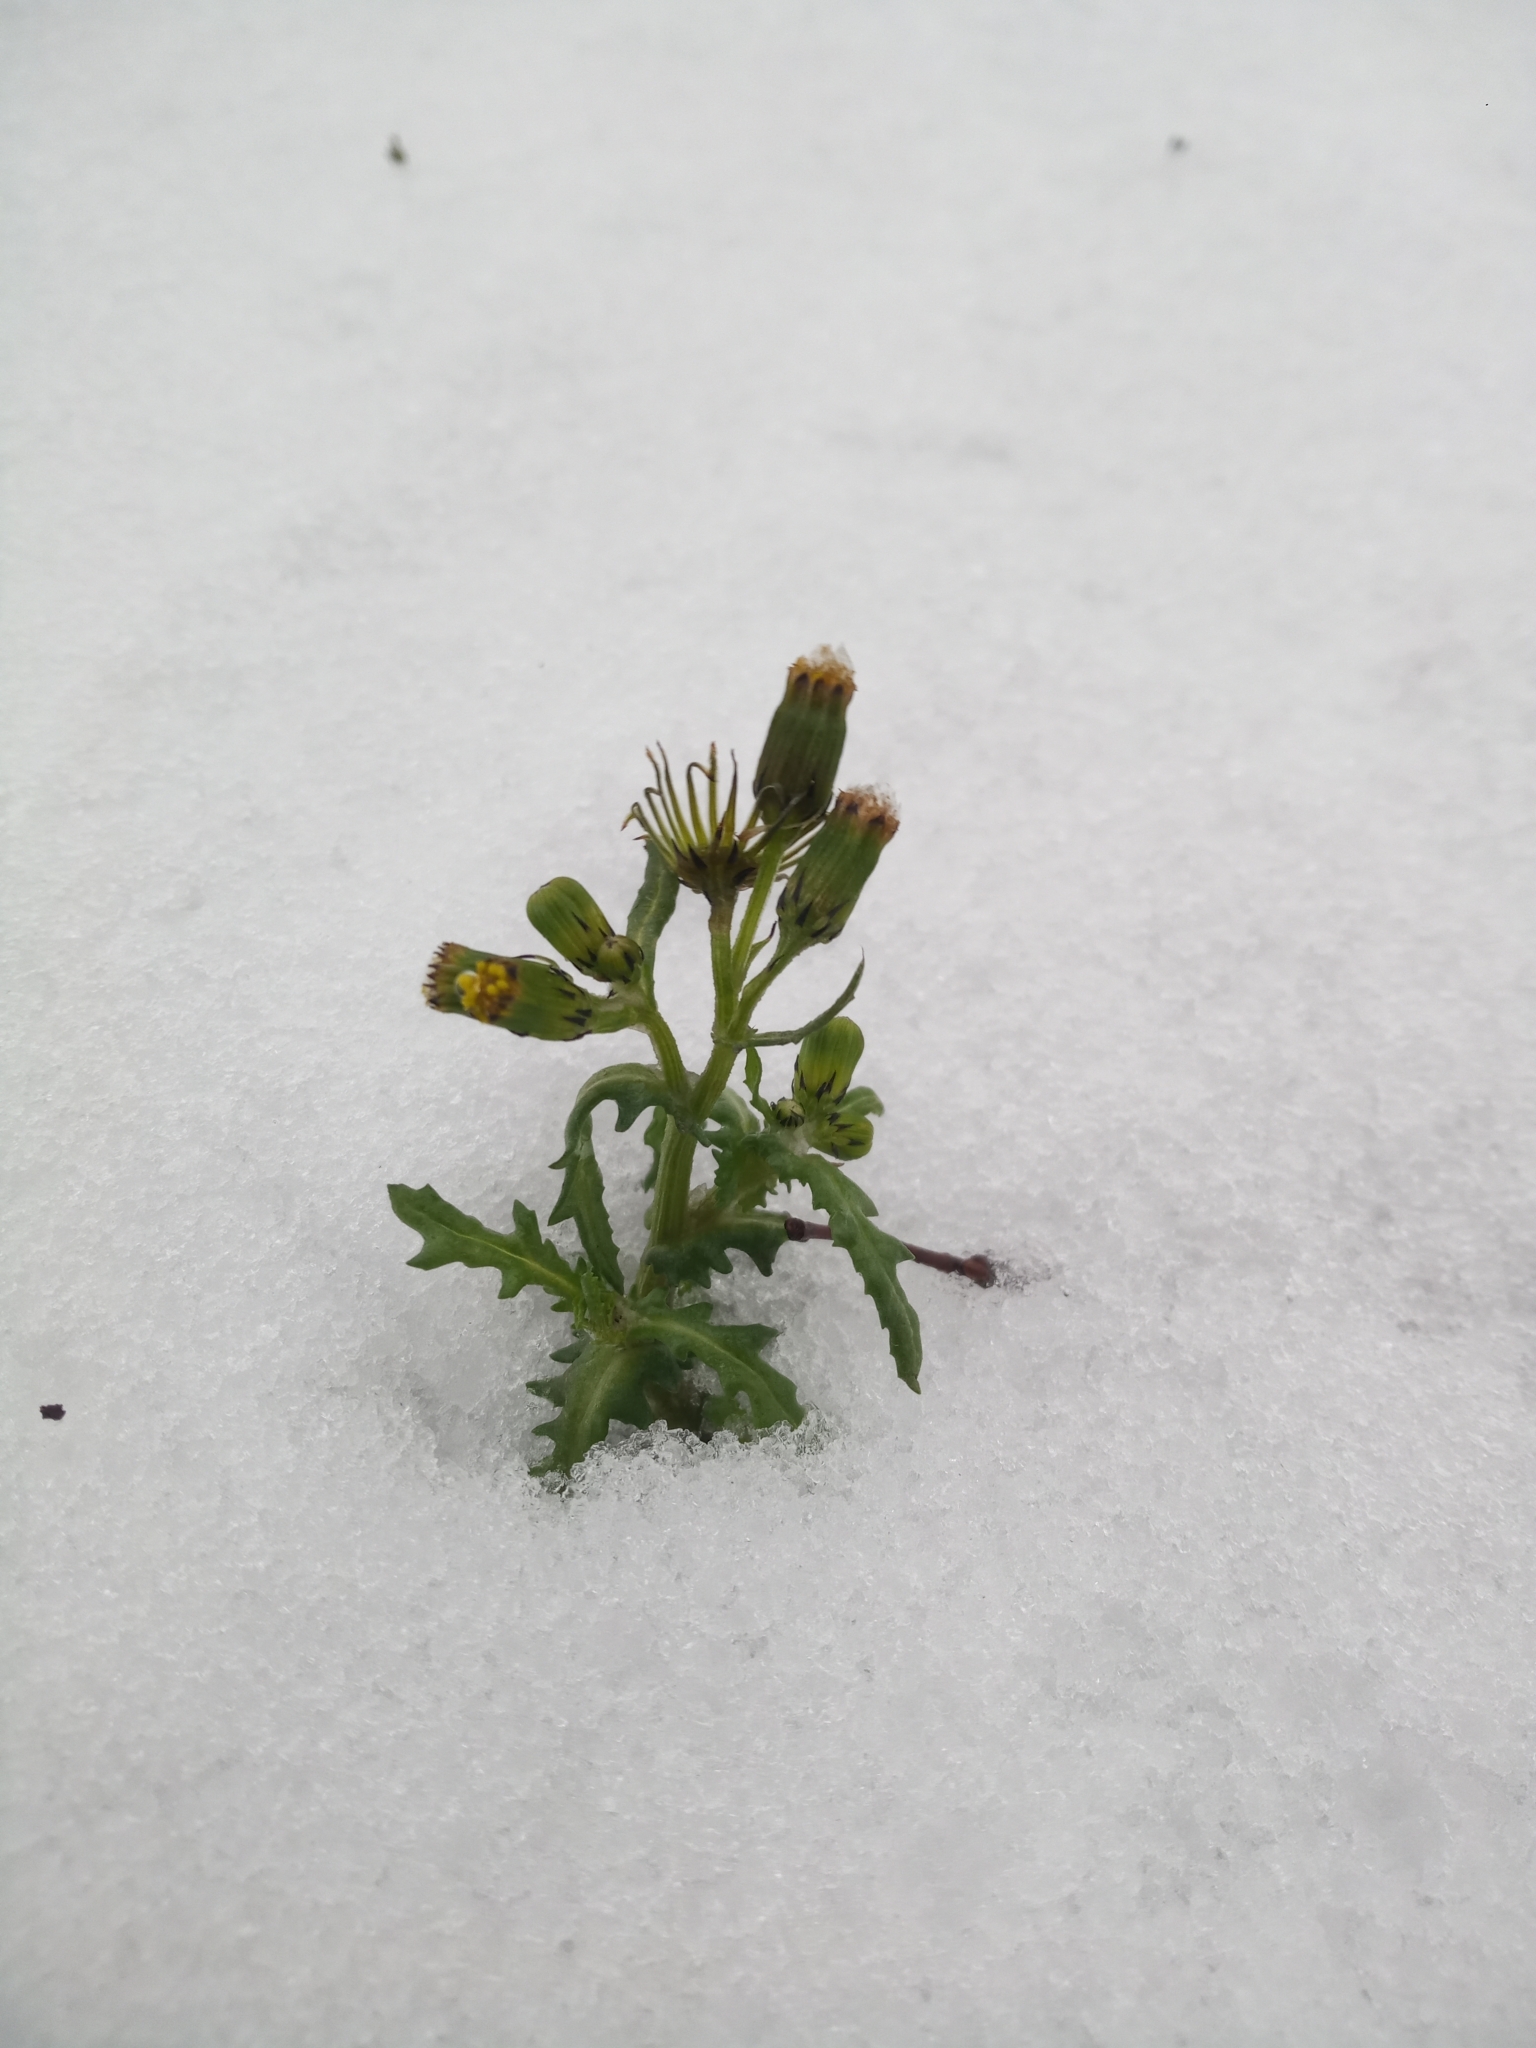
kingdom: Plantae
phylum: Tracheophyta
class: Magnoliopsida
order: Asterales
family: Asteraceae
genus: Senecio
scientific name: Senecio vulgaris
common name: Old-man-in-the-spring
